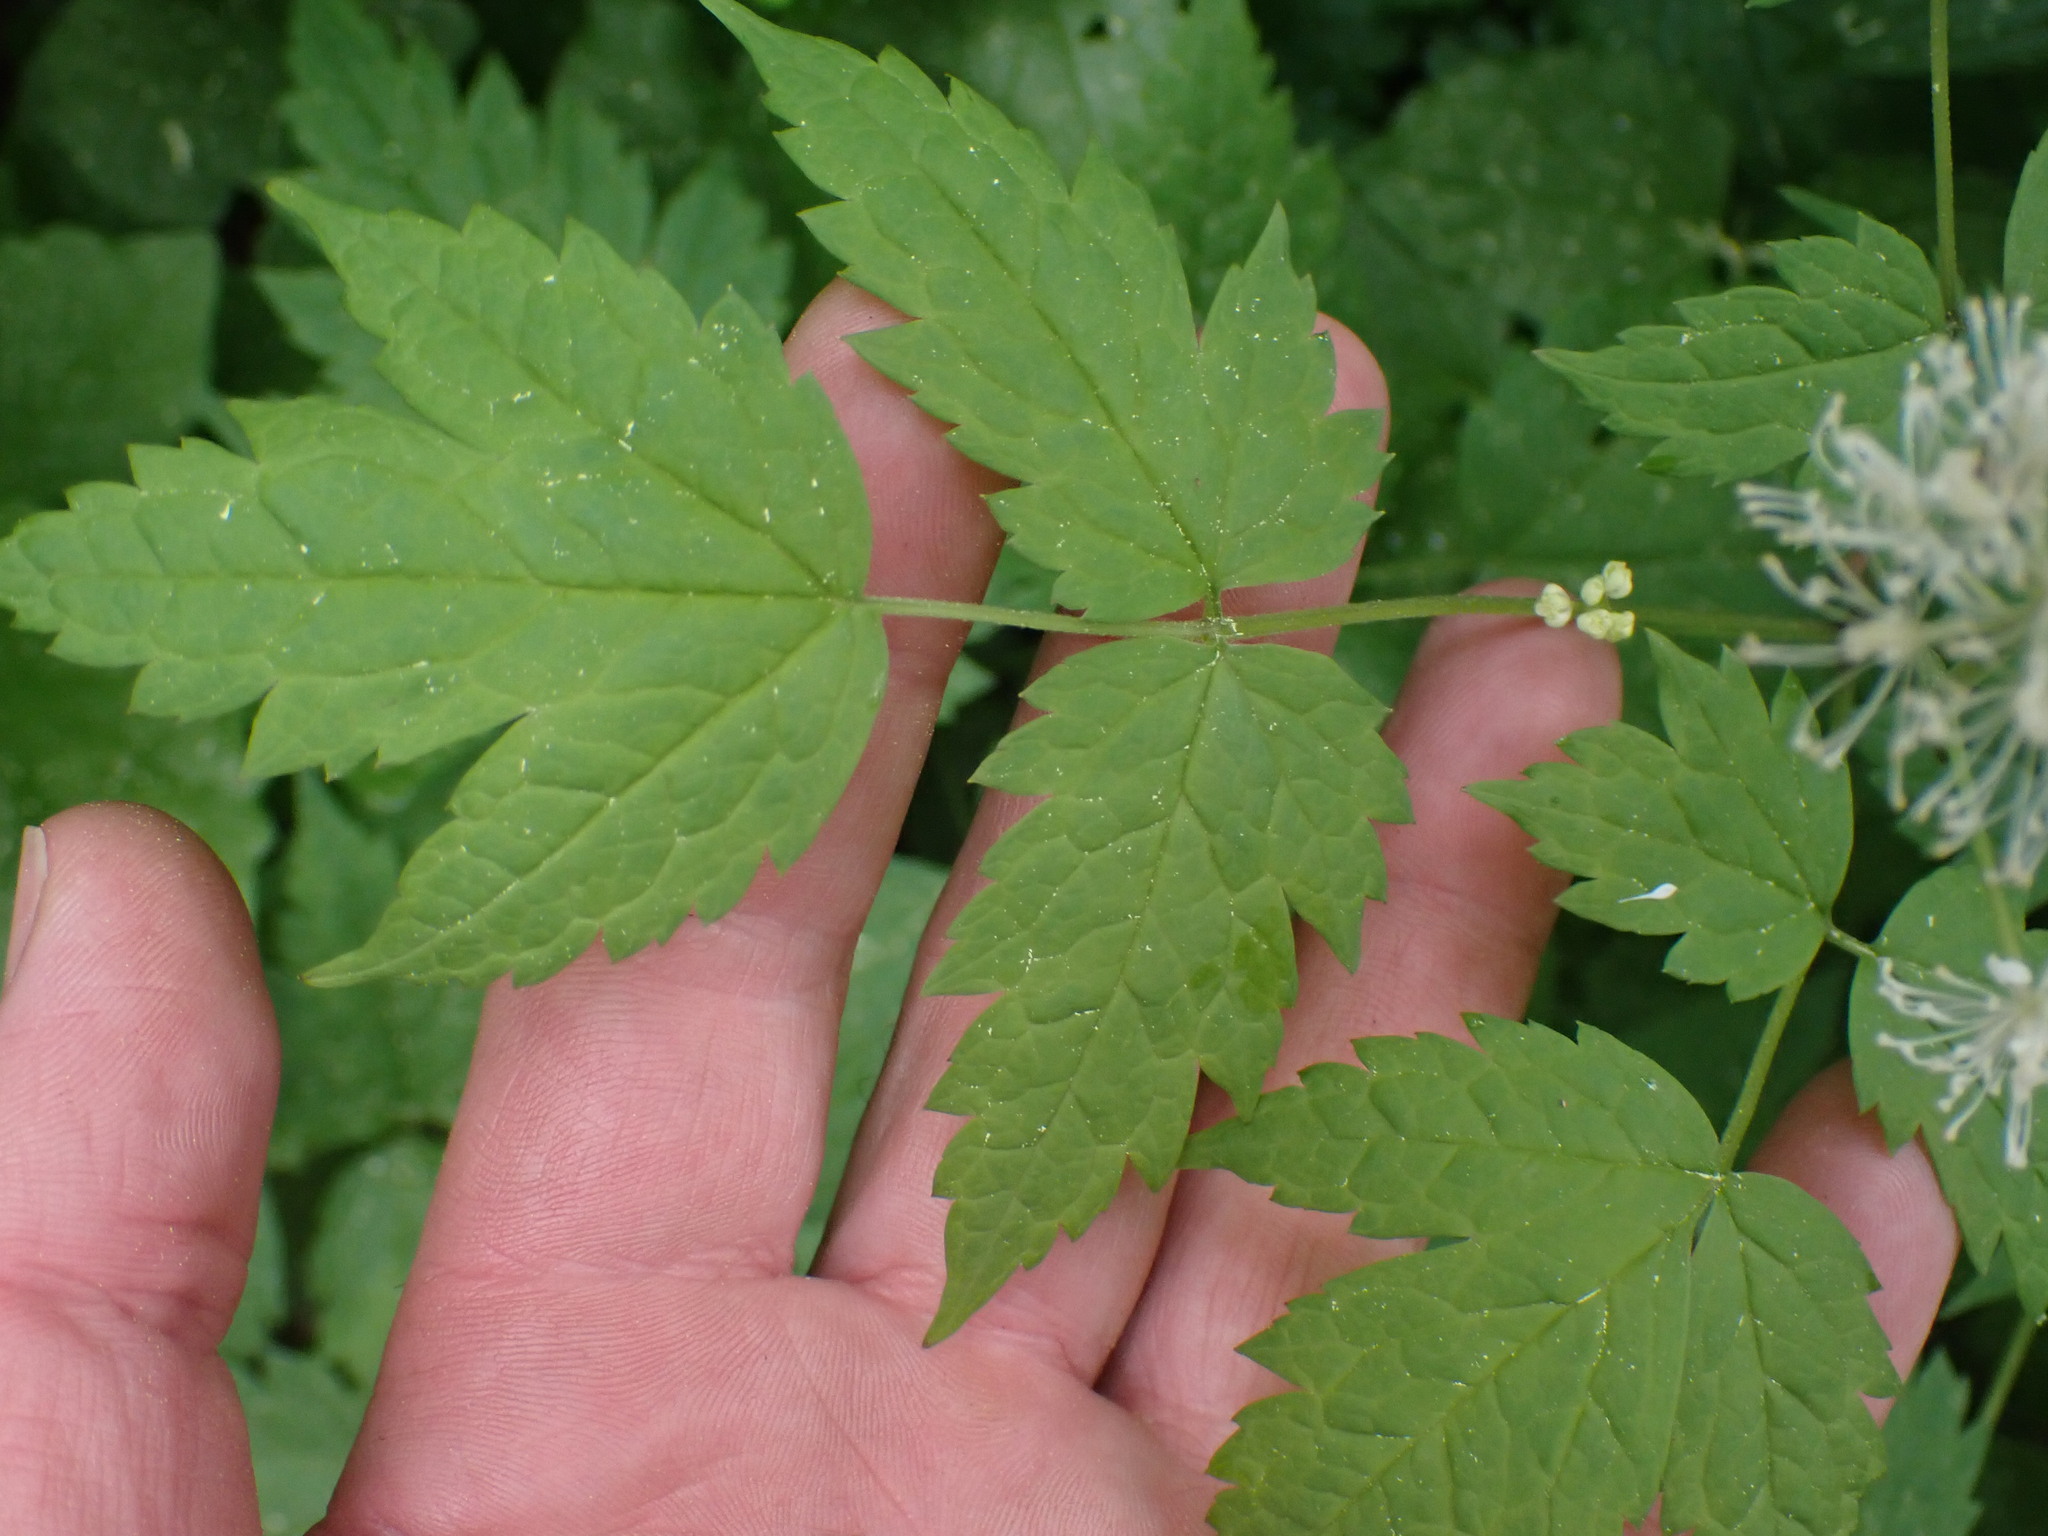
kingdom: Plantae
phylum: Tracheophyta
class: Magnoliopsida
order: Ranunculales
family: Ranunculaceae
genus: Actaea
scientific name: Actaea rubra
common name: Red baneberry
